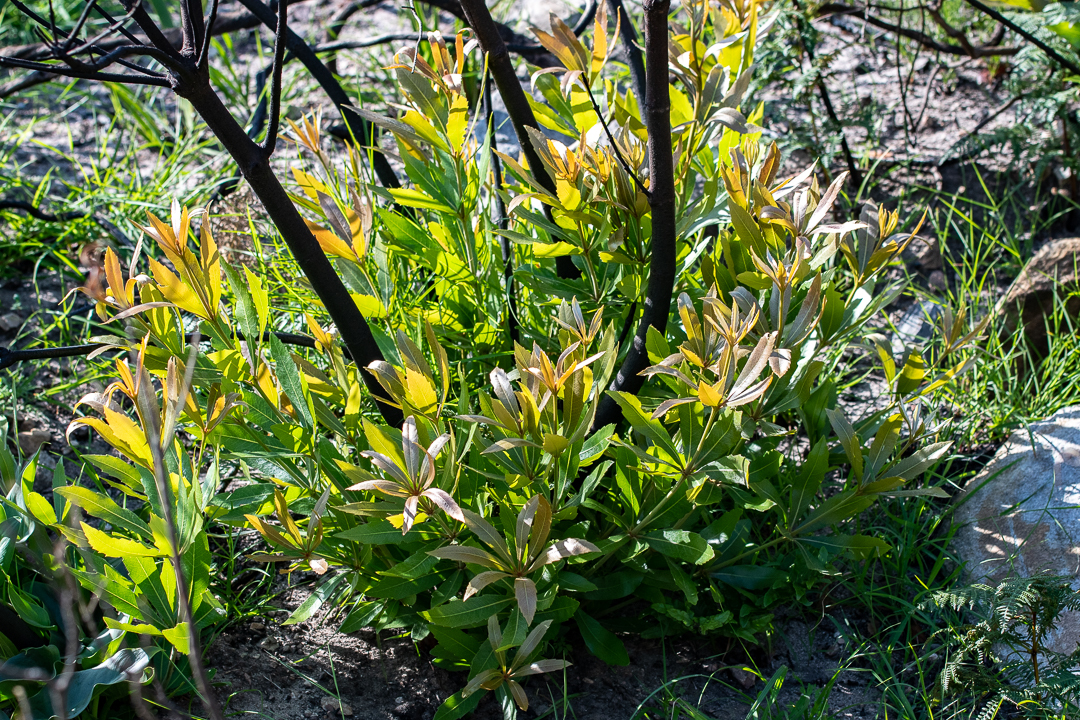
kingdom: Plantae
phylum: Tracheophyta
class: Magnoliopsida
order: Proteales
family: Proteaceae
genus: Brabejum
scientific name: Brabejum stellatifolium
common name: Wild almond
